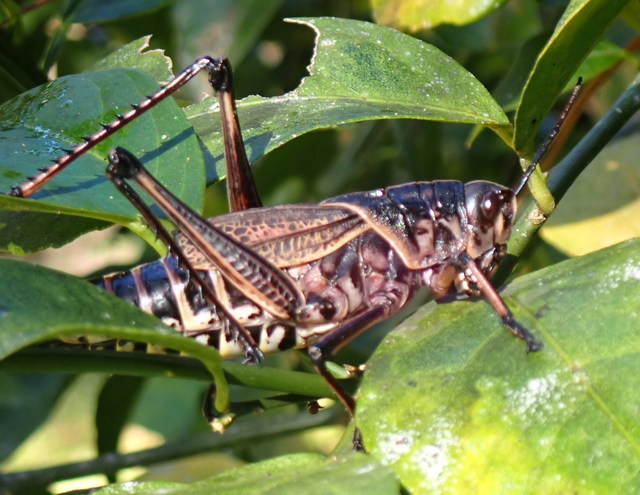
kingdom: Animalia
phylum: Arthropoda
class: Insecta
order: Orthoptera
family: Romaleidae
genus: Romalea
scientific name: Romalea microptera
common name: Eastern lubber grasshopper
